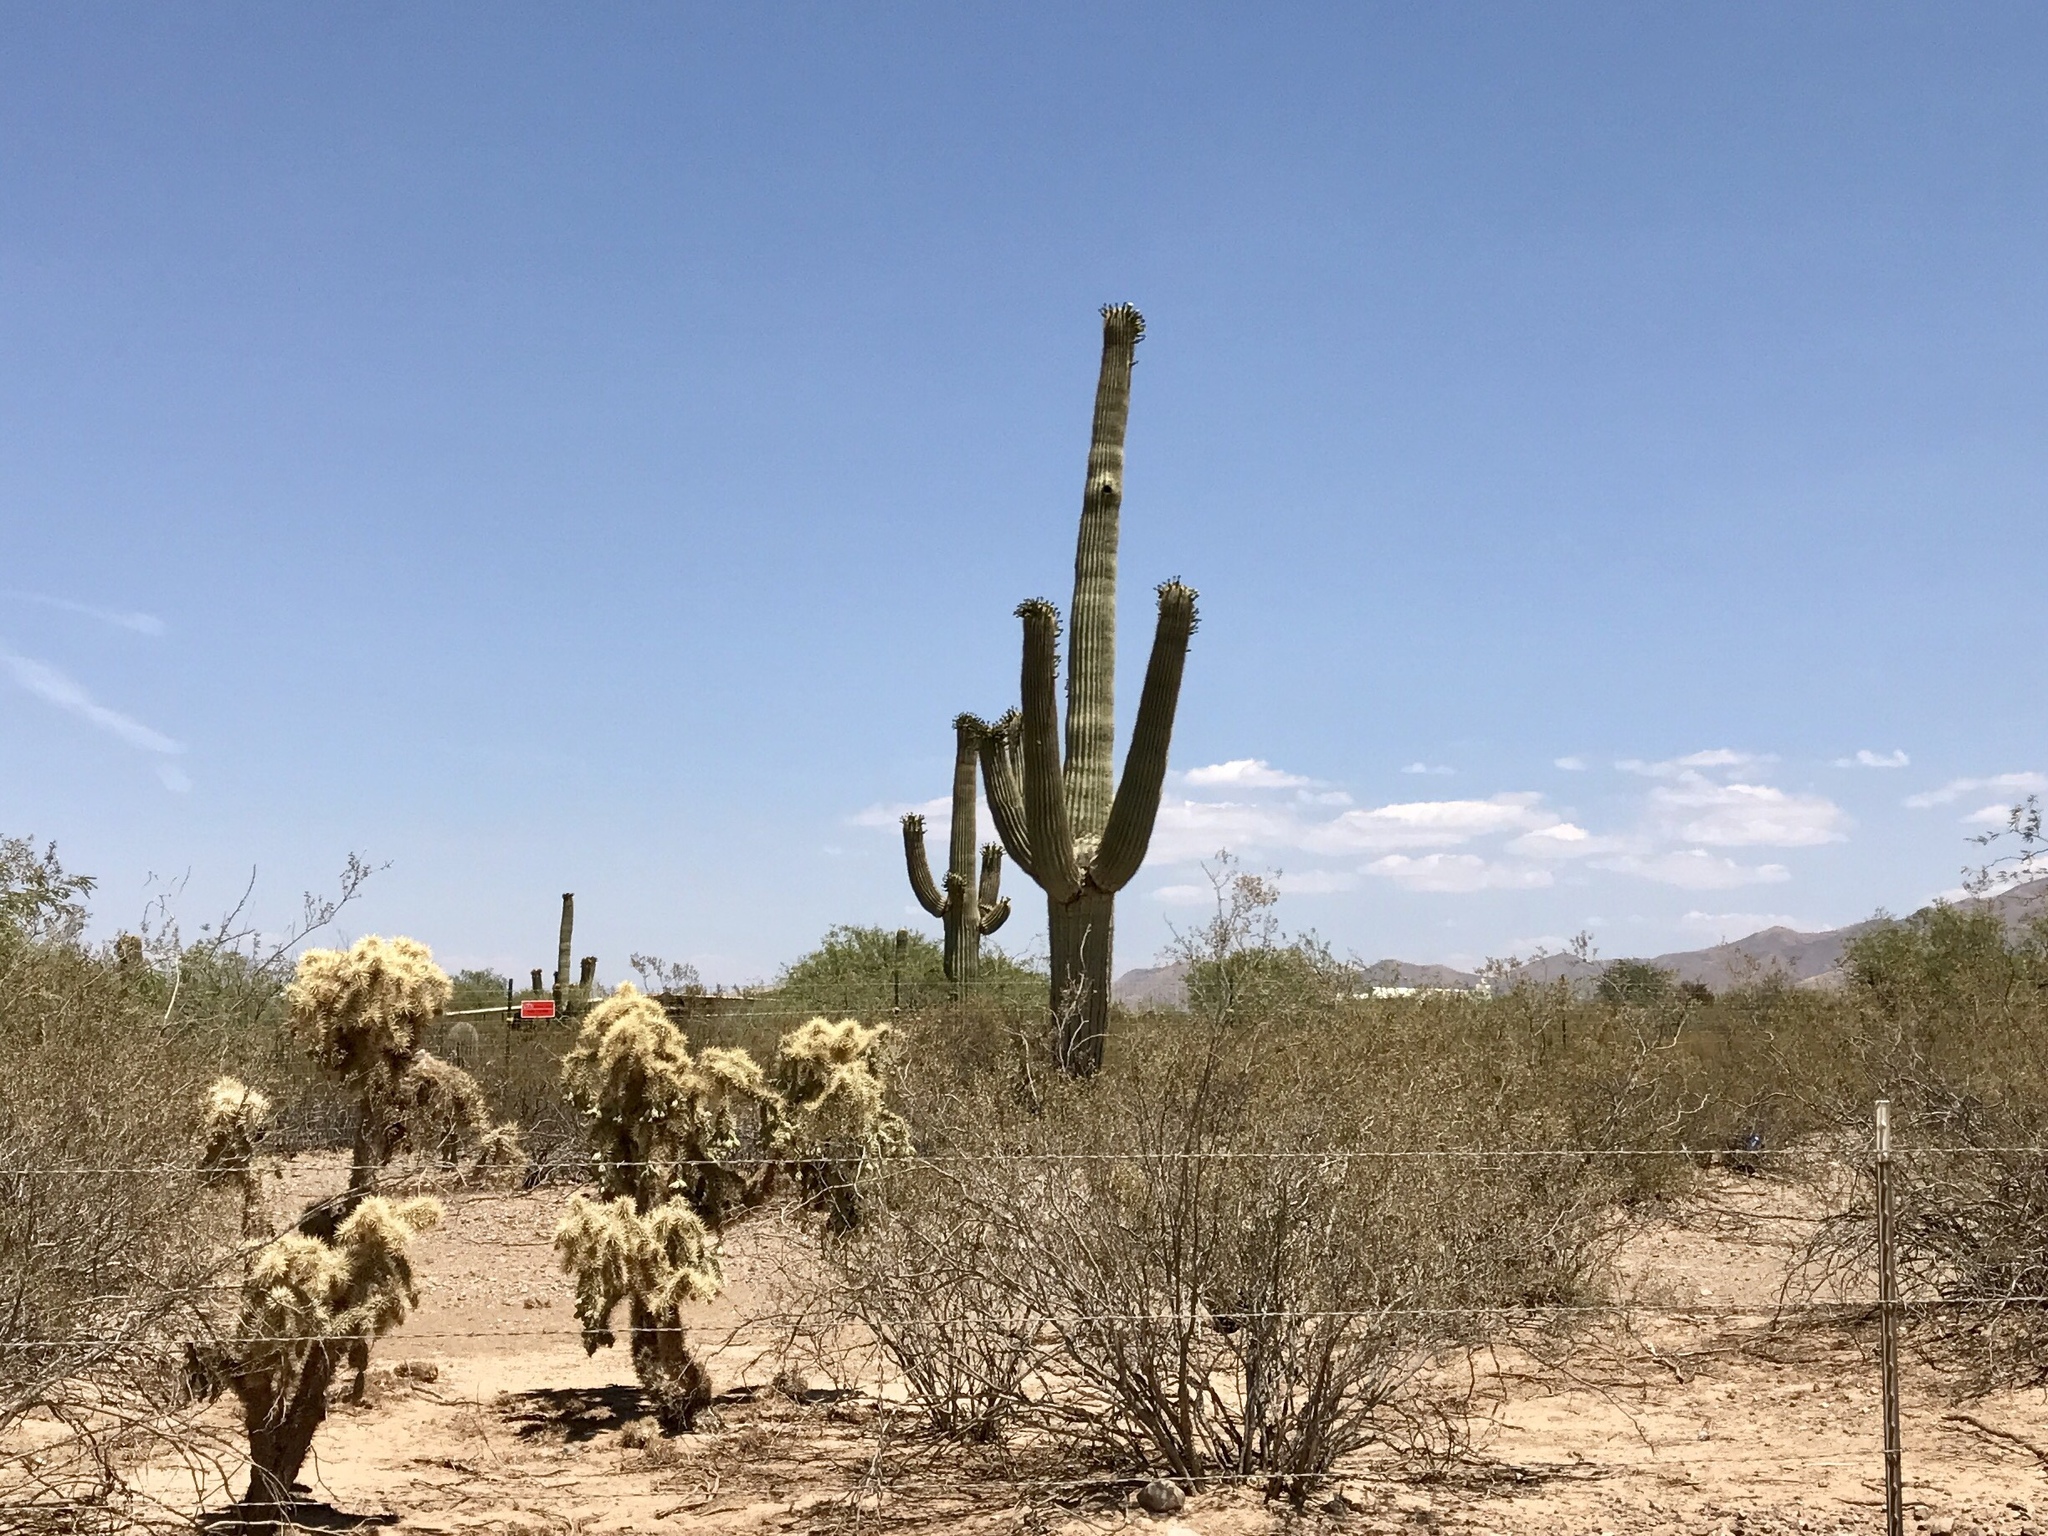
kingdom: Plantae
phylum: Tracheophyta
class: Magnoliopsida
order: Caryophyllales
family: Cactaceae
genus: Carnegiea
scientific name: Carnegiea gigantea
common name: Saguaro
